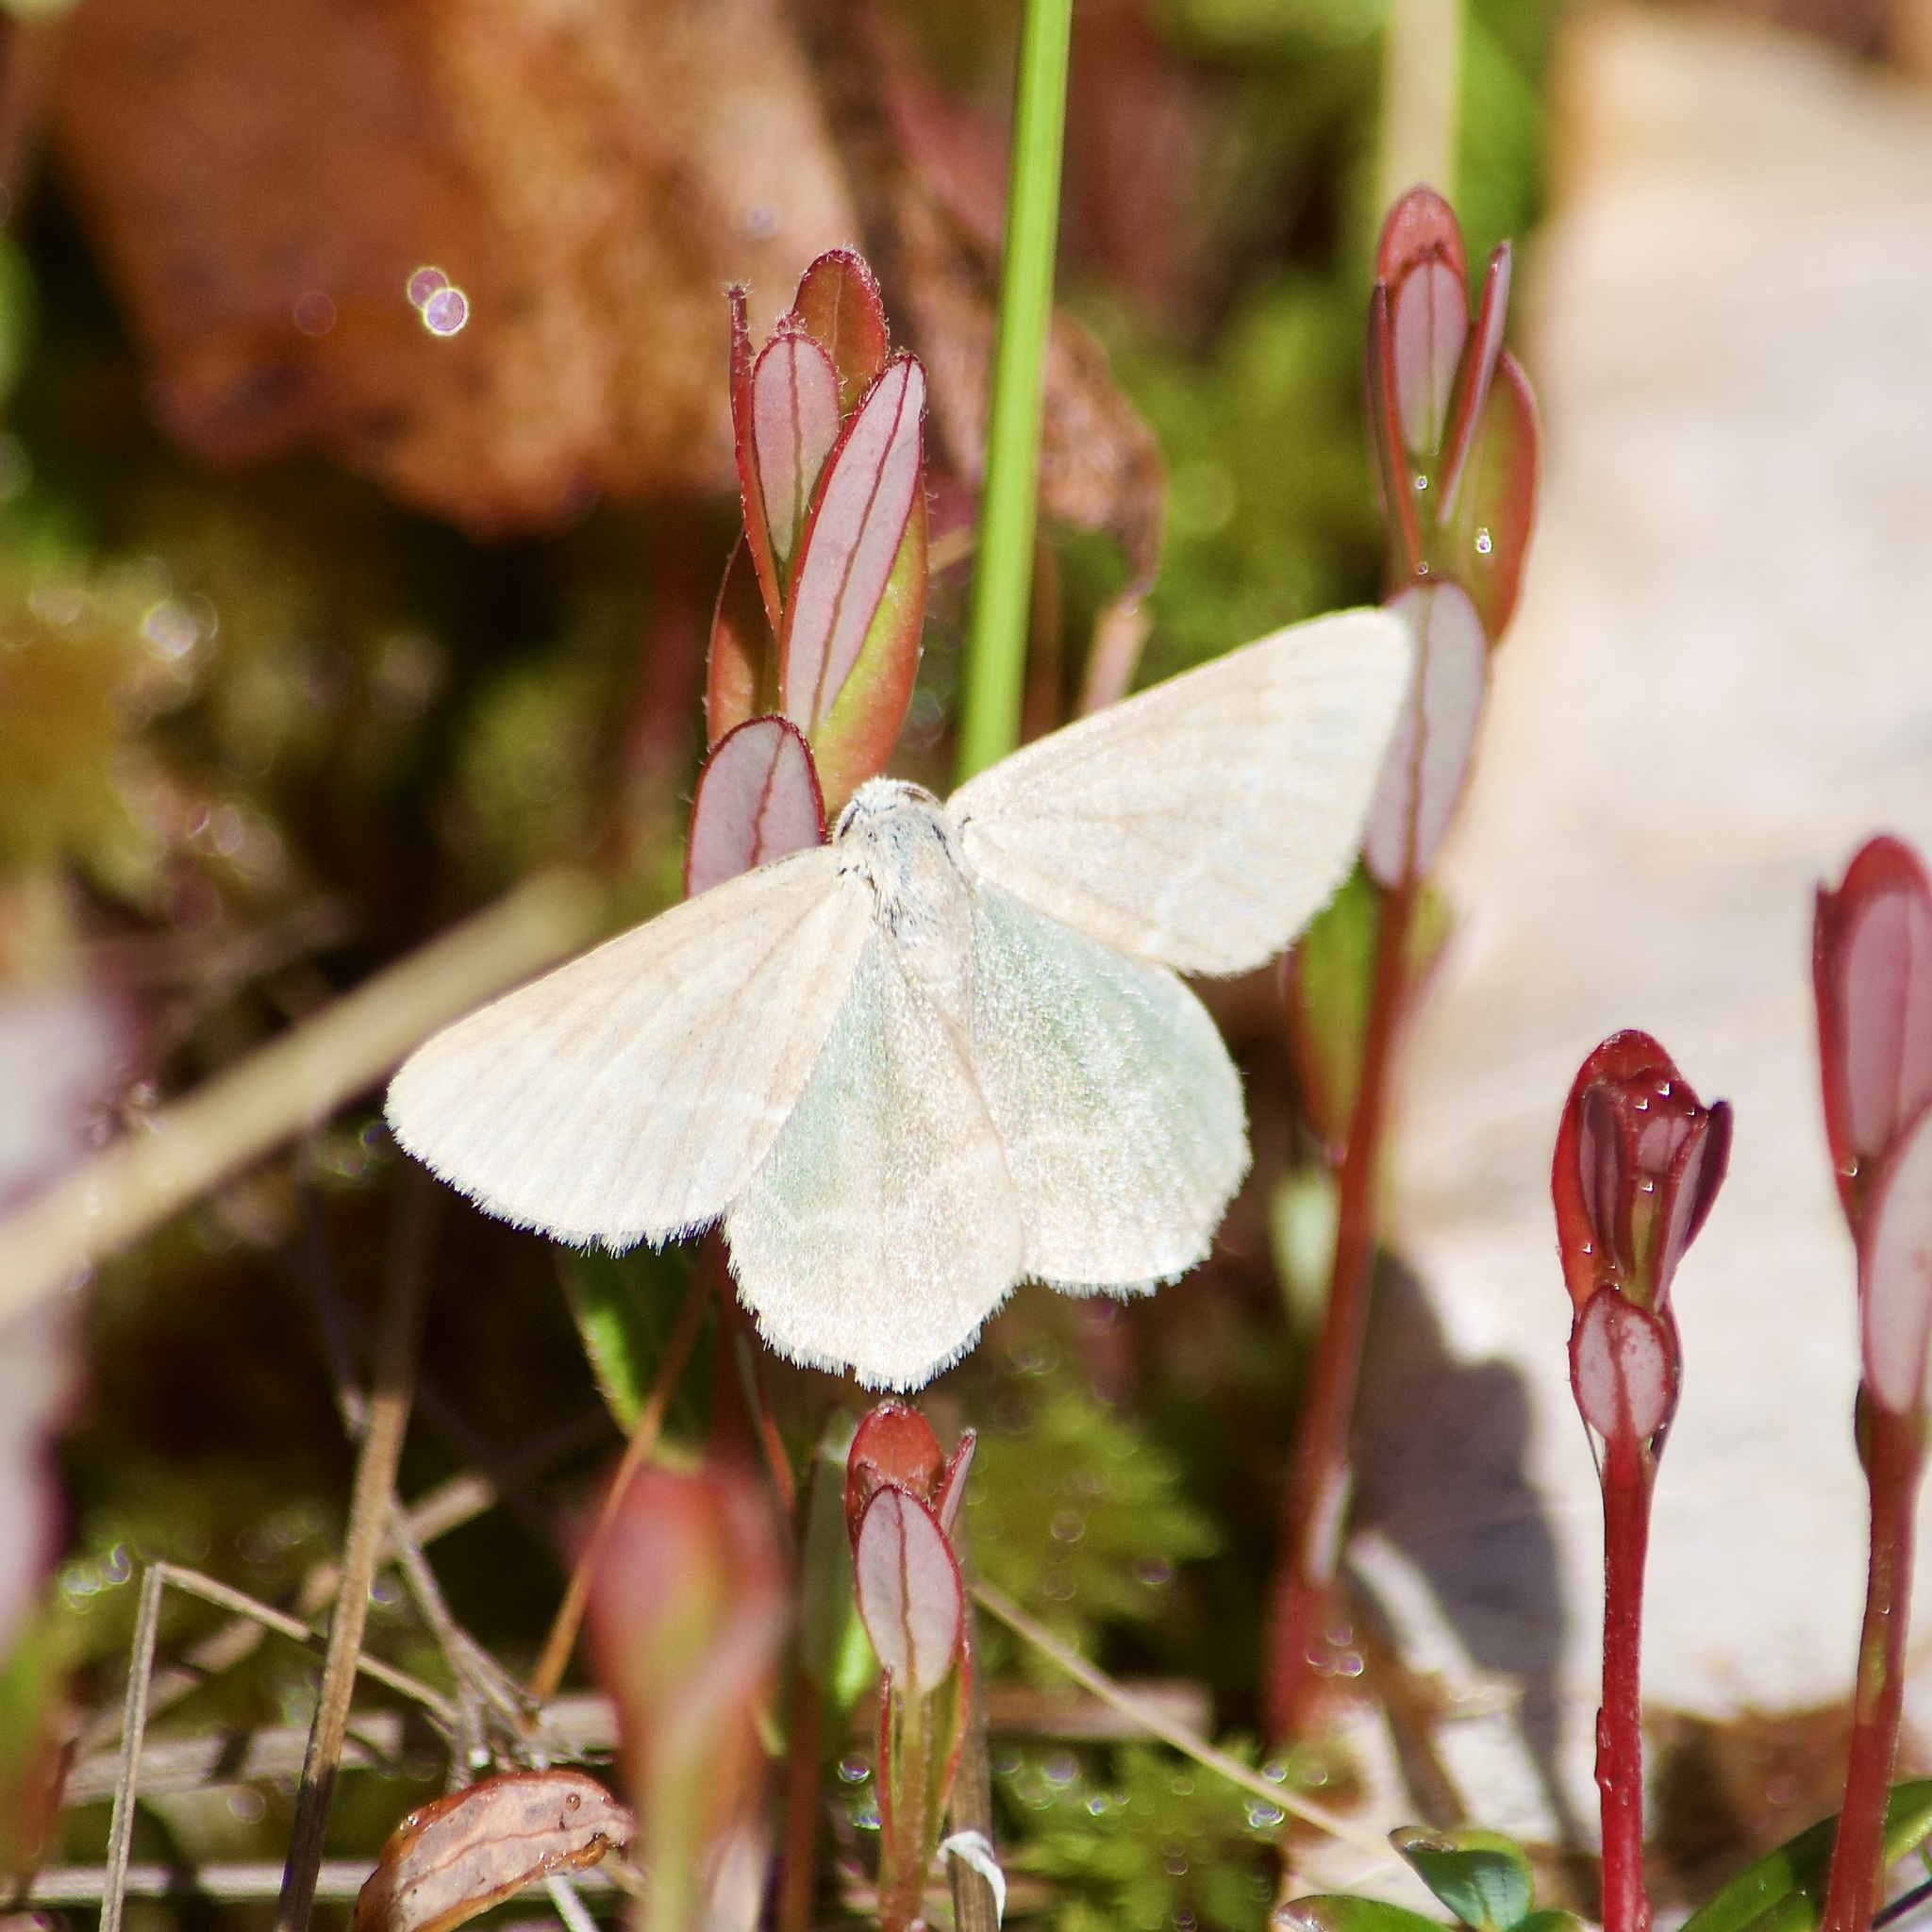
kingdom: Animalia
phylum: Arthropoda
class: Insecta
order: Lepidoptera
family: Geometridae
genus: Mesothea
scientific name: Mesothea incertata
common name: Day emerald moth
